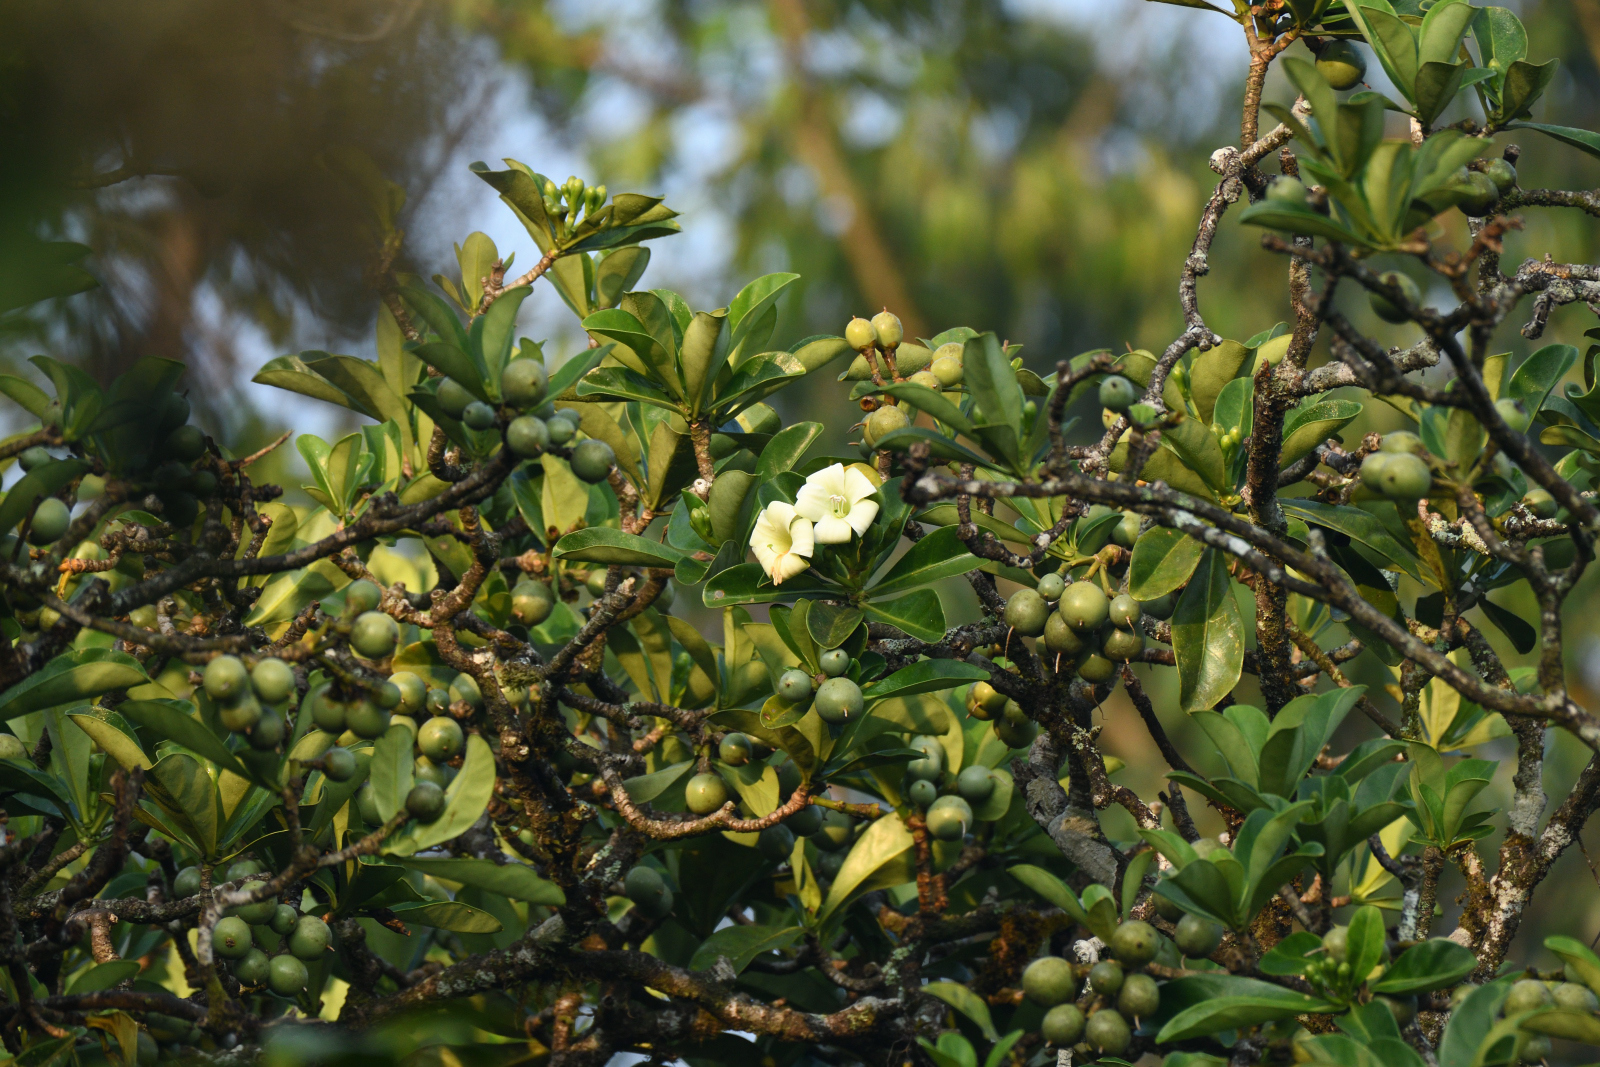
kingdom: Plantae
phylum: Tracheophyta
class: Magnoliopsida
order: Gentianales
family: Gentianaceae
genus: Fagraea
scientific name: Fagraea ceilanica
